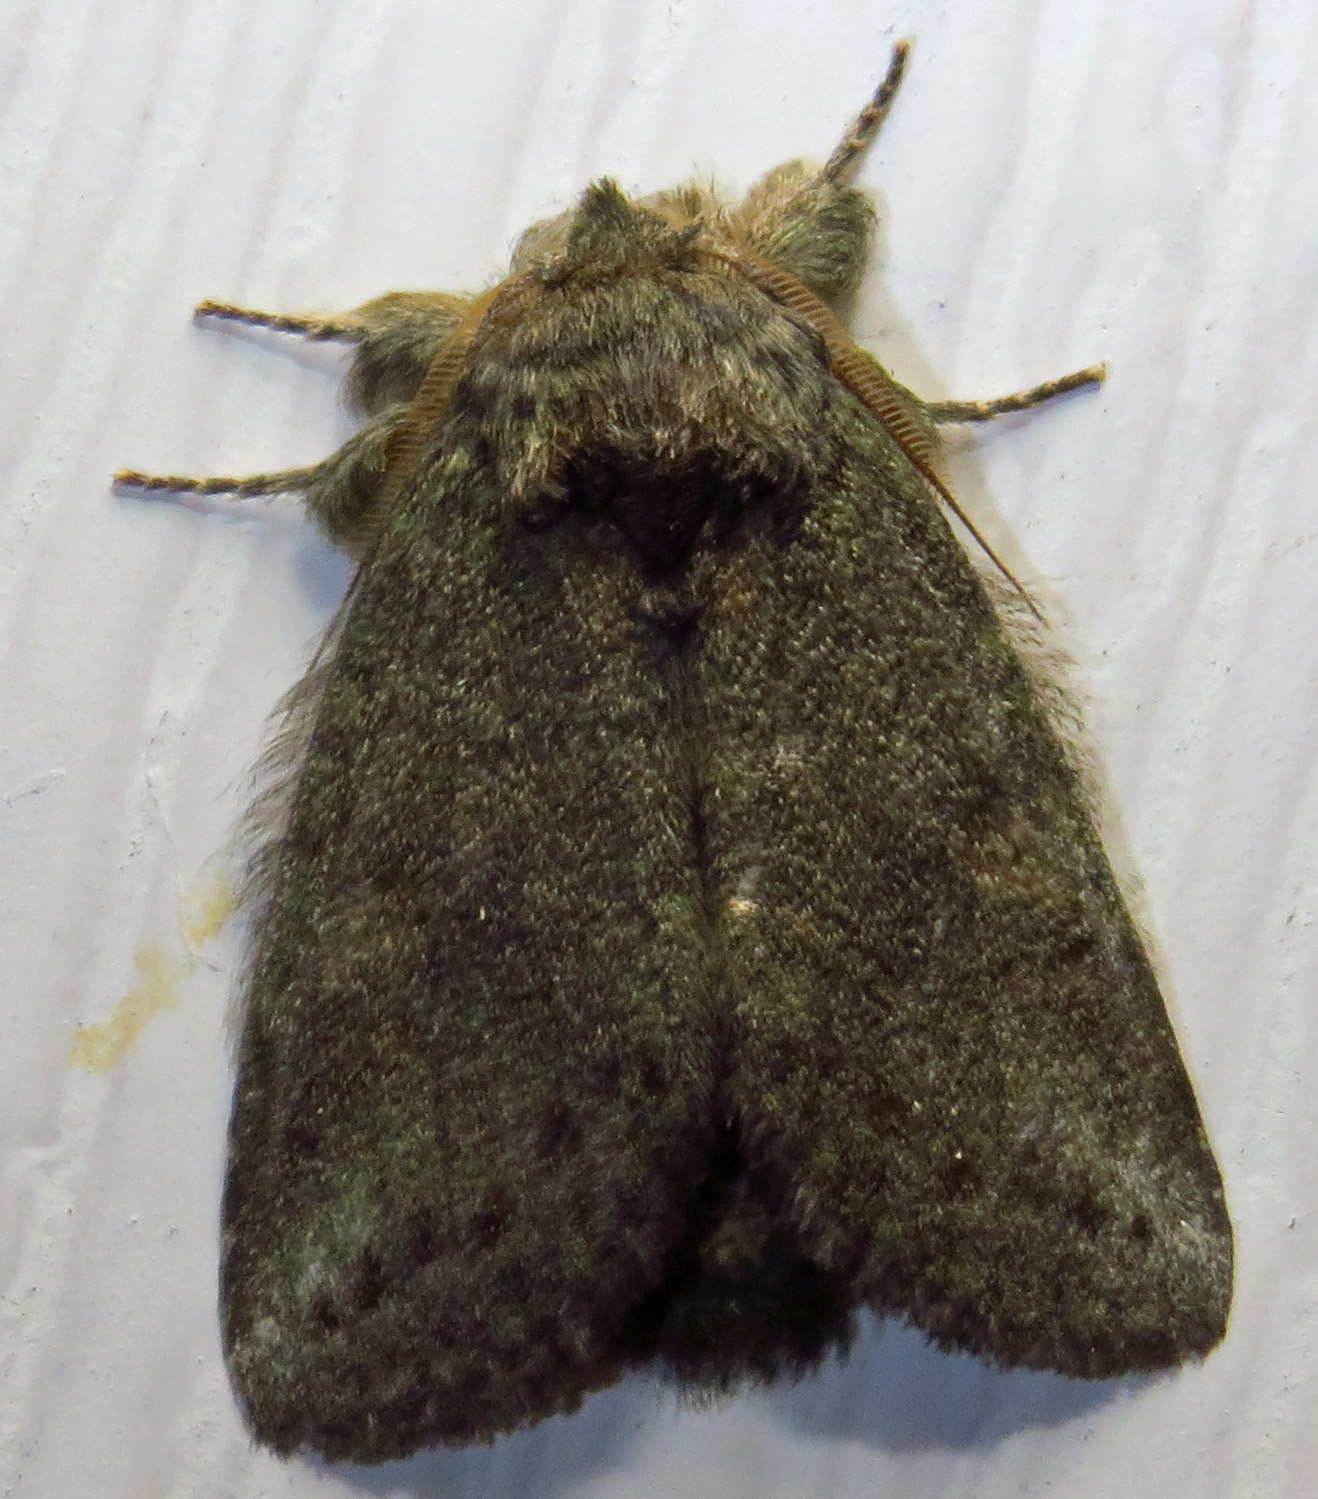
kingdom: Animalia
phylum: Arthropoda
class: Insecta
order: Lepidoptera
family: Notodontidae
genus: Disphragis
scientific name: Disphragis Cecrita guttivitta
